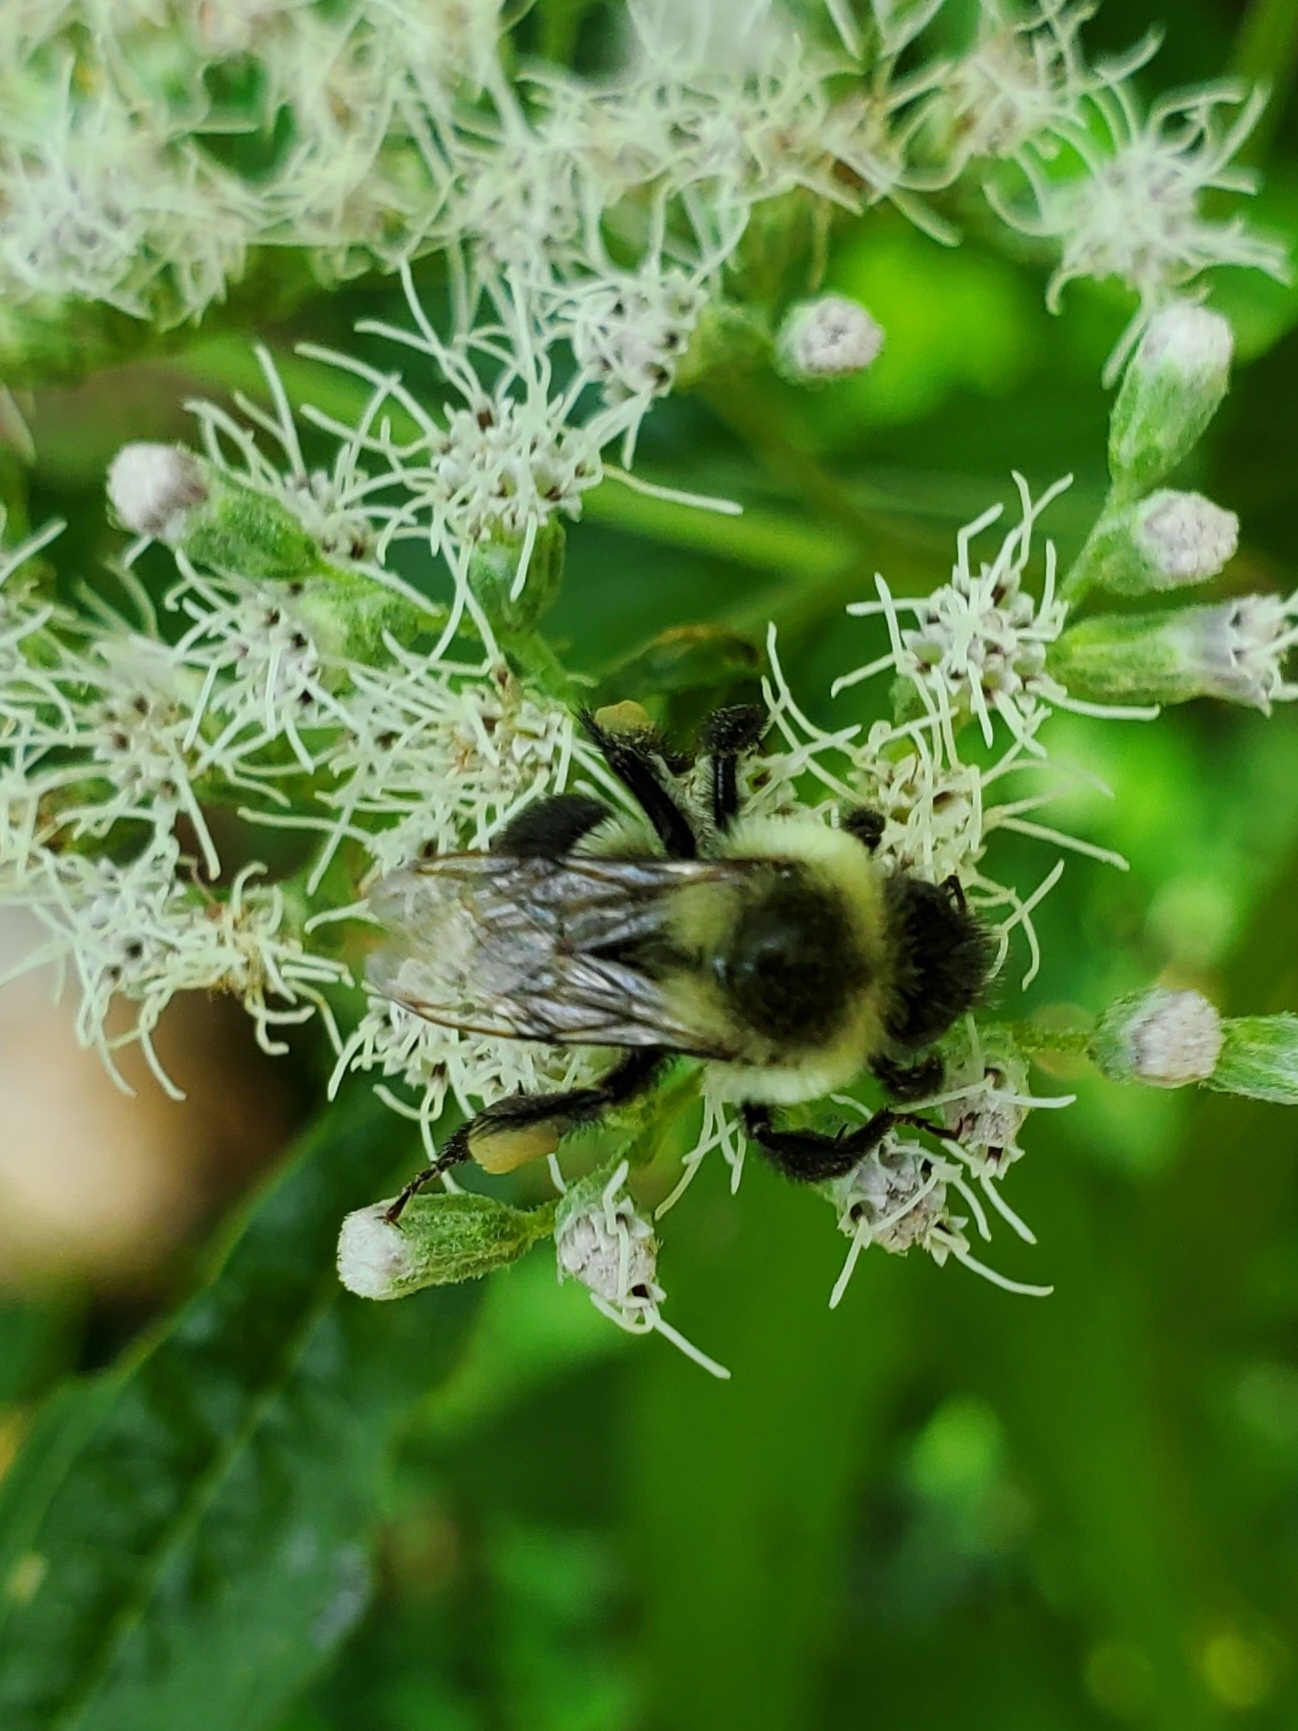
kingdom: Animalia
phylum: Arthropoda
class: Insecta
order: Hymenoptera
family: Apidae
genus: Bombus
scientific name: Bombus impatiens
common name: Common eastern bumble bee
